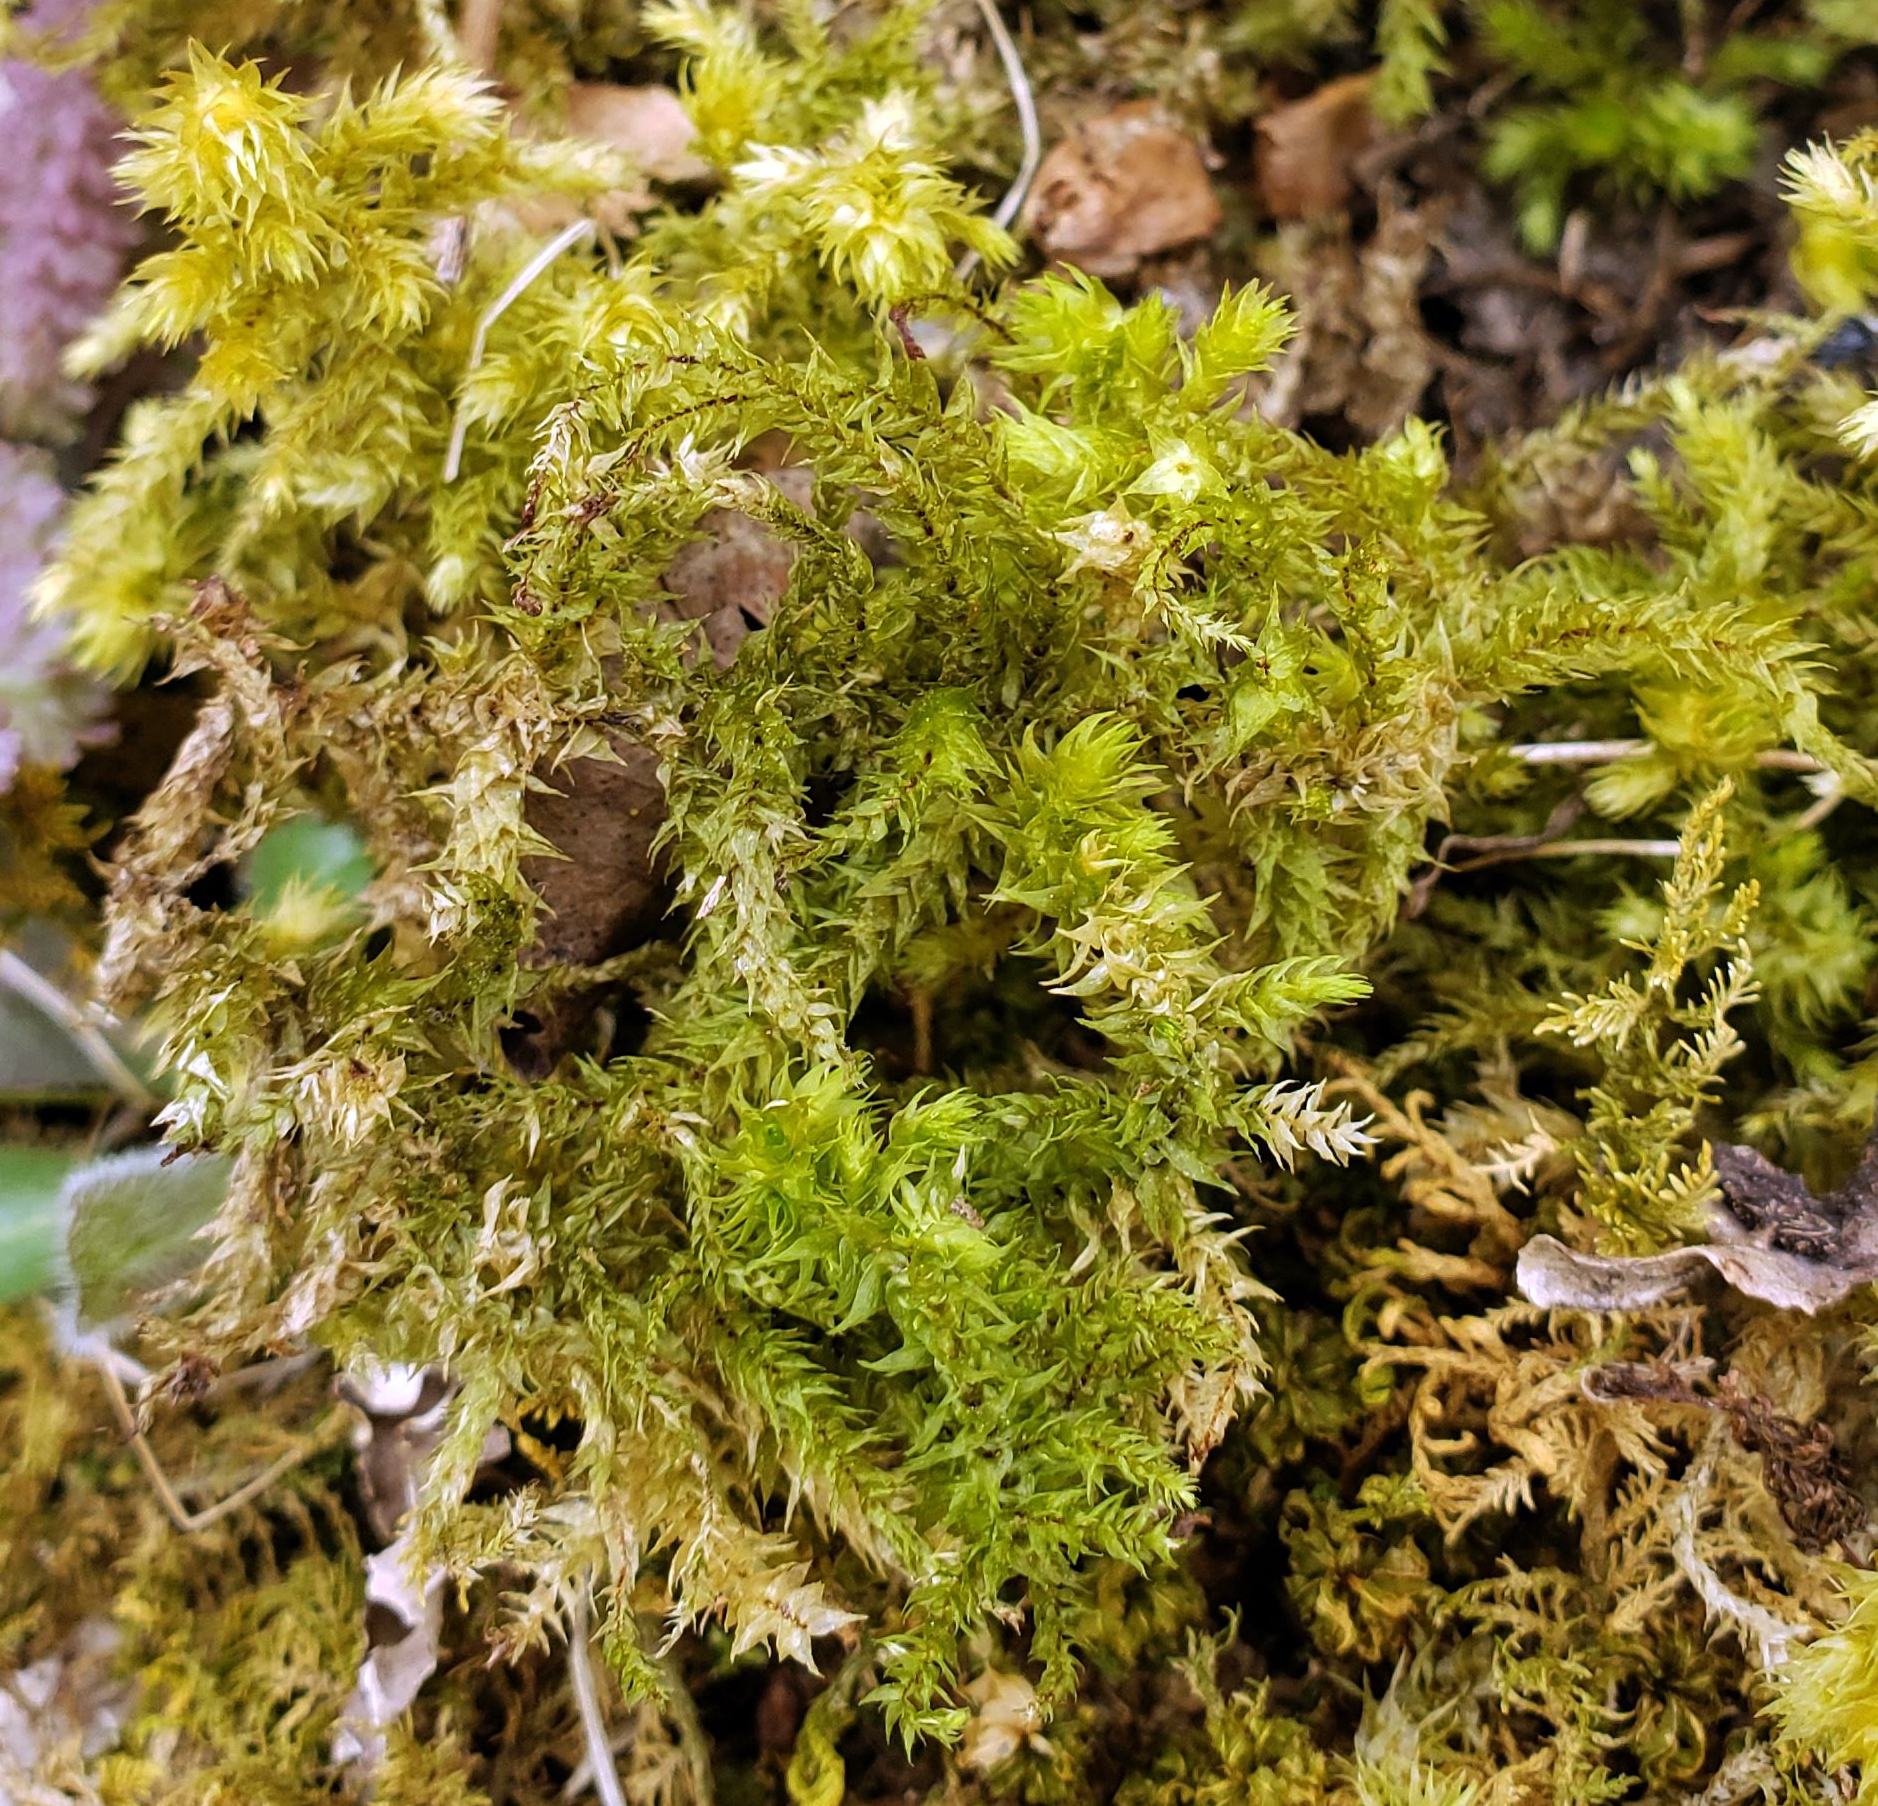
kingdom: Plantae
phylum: Bryophyta
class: Bryopsida
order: Hypnales
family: Hylocomiaceae
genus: Hylocomiadelphus
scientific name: Hylocomiadelphus triquetrus
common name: Rough goose neck moss
